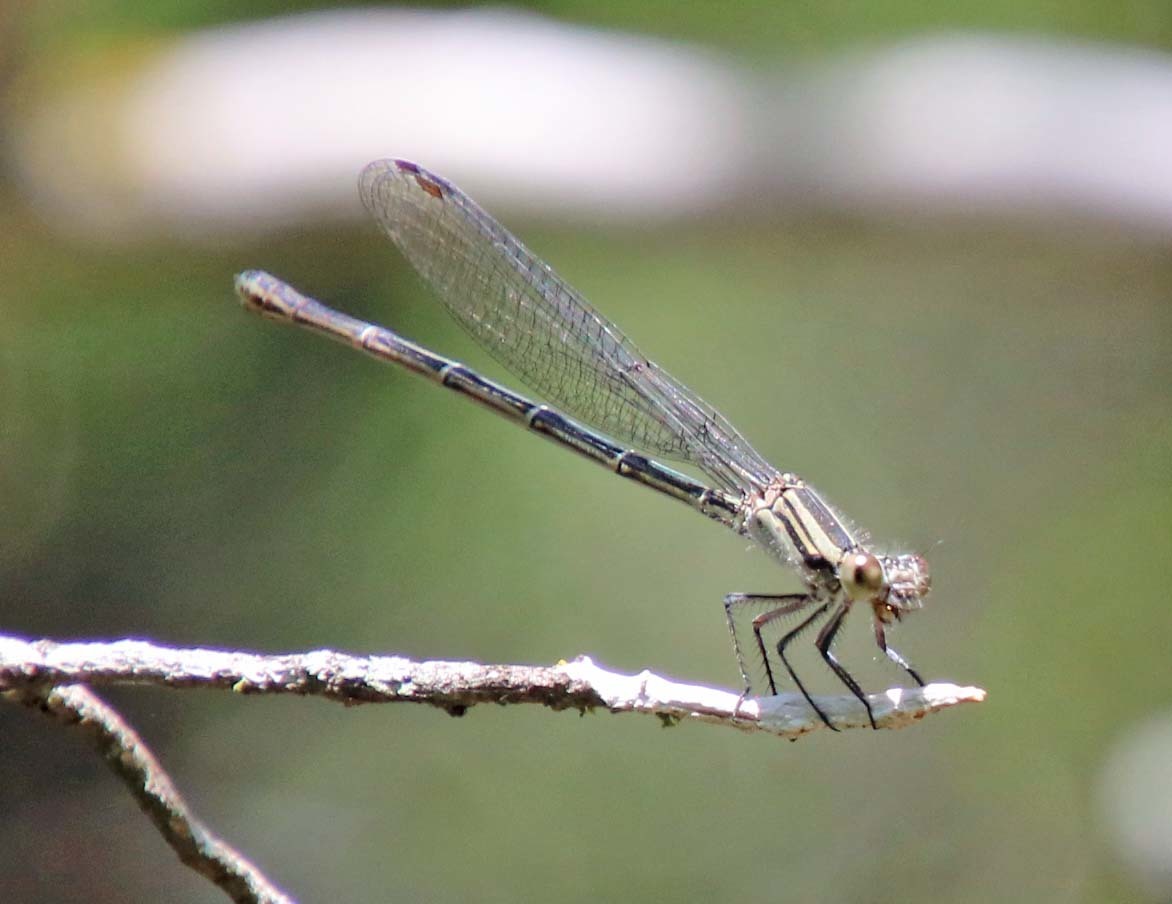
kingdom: Animalia
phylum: Arthropoda
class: Insecta
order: Odonata
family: Coenagrionidae
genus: Argia
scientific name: Argia translata
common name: Dusky dancer
